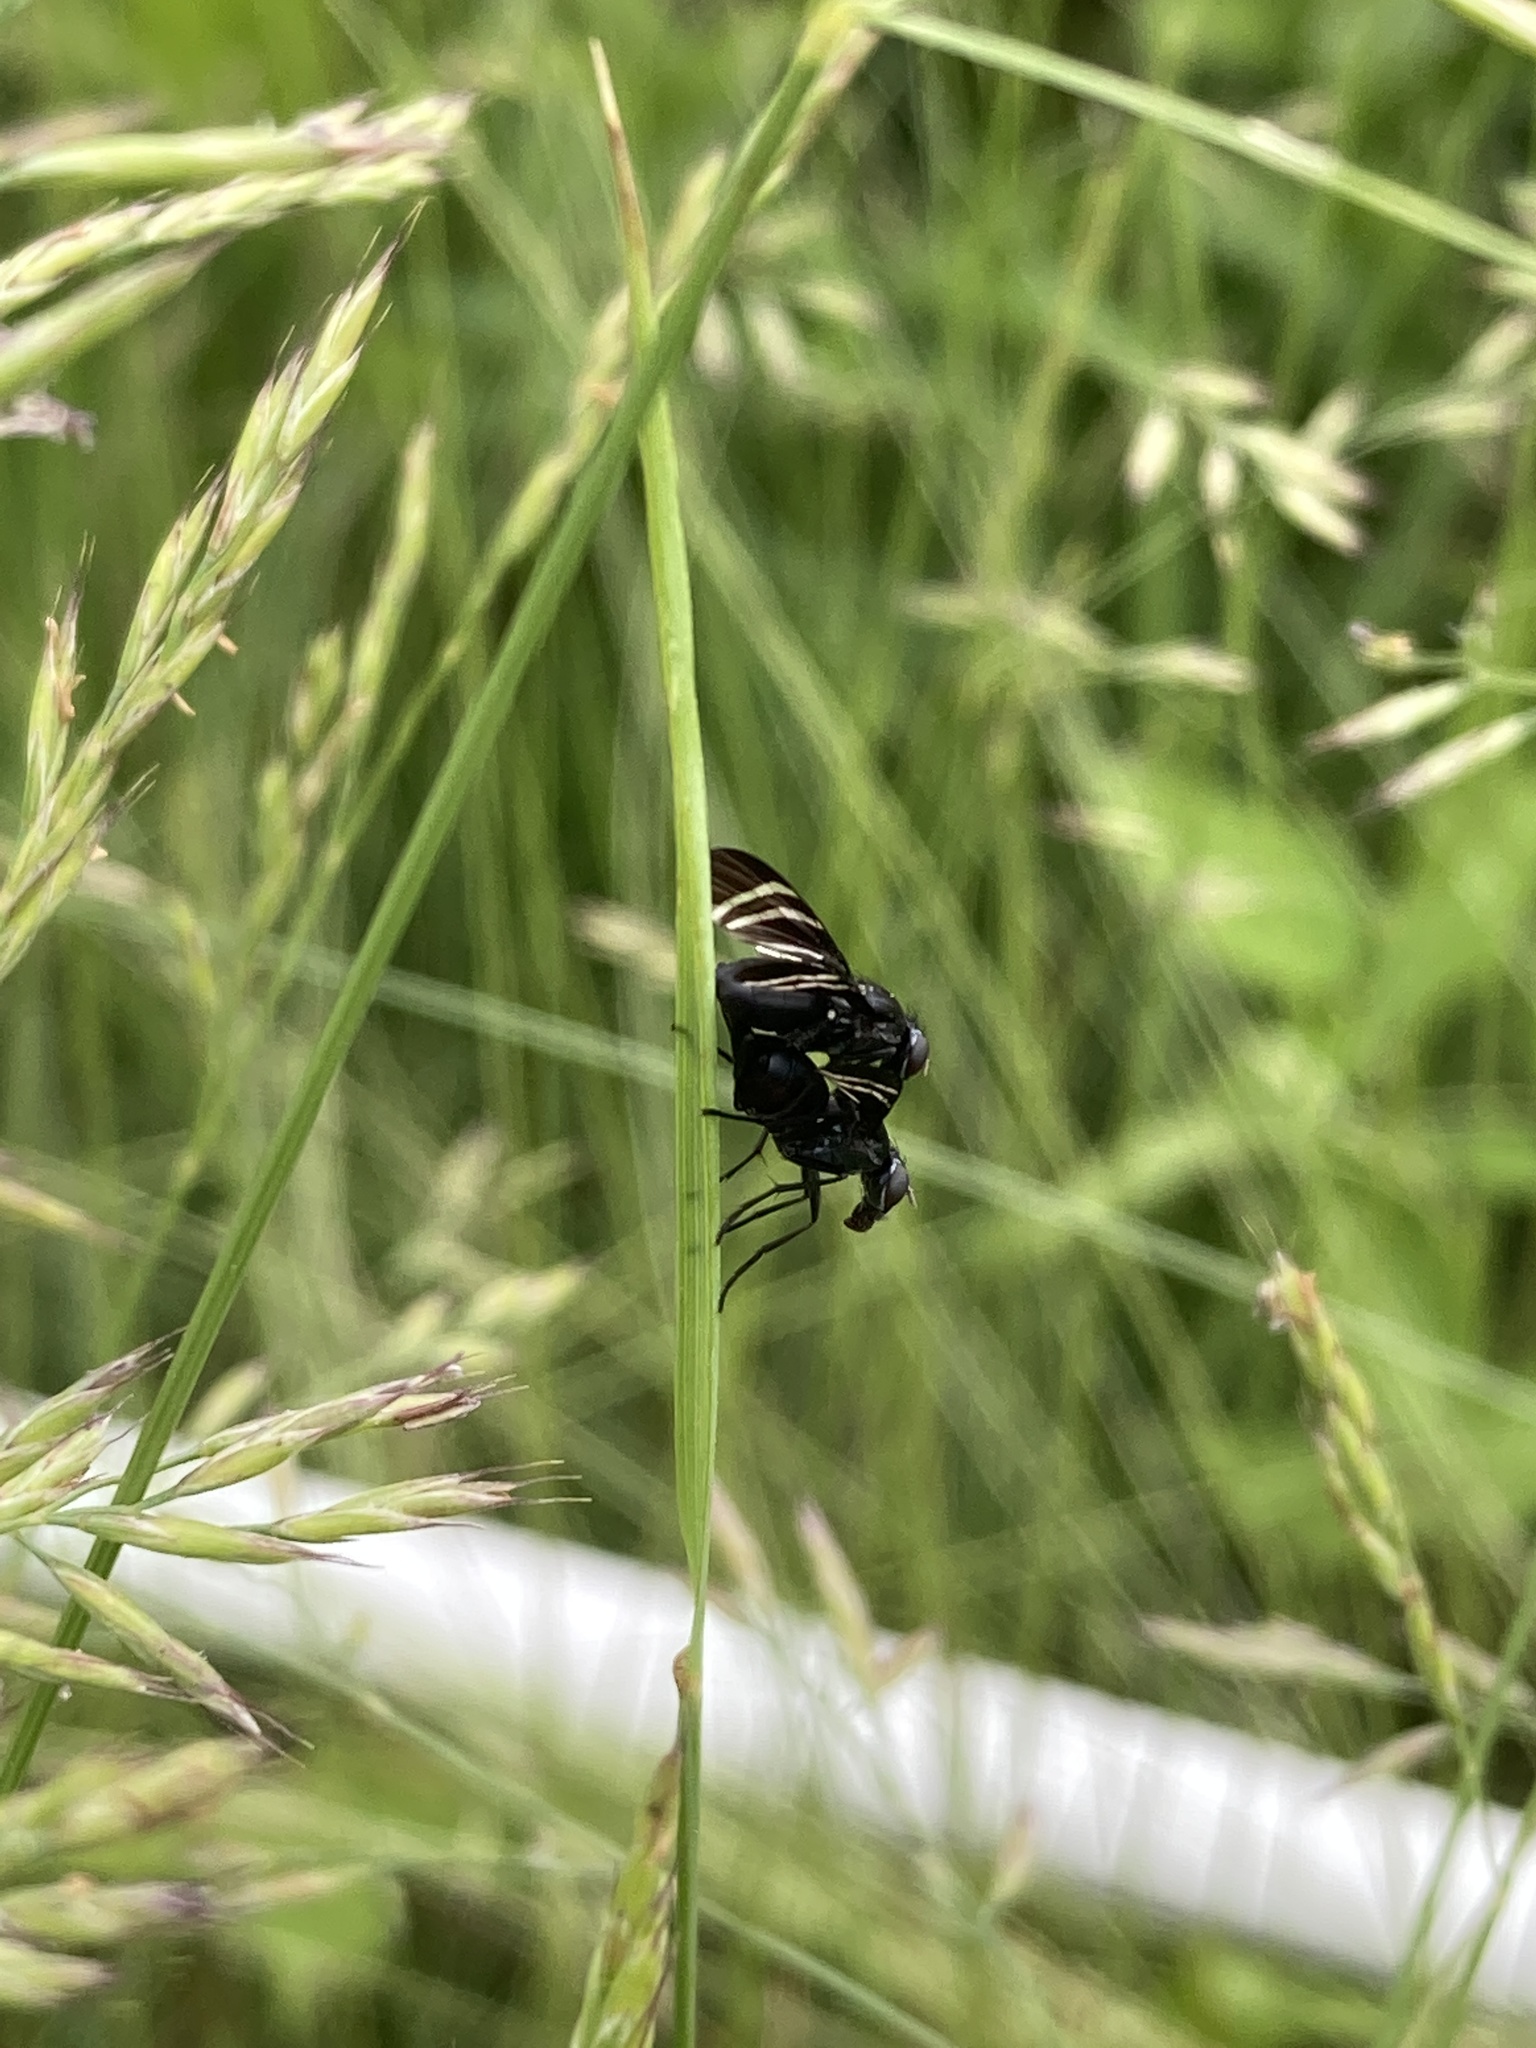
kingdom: Animalia
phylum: Arthropoda
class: Insecta
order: Diptera
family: Ulidiidae
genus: Tritoxa
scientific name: Tritoxa flexa
